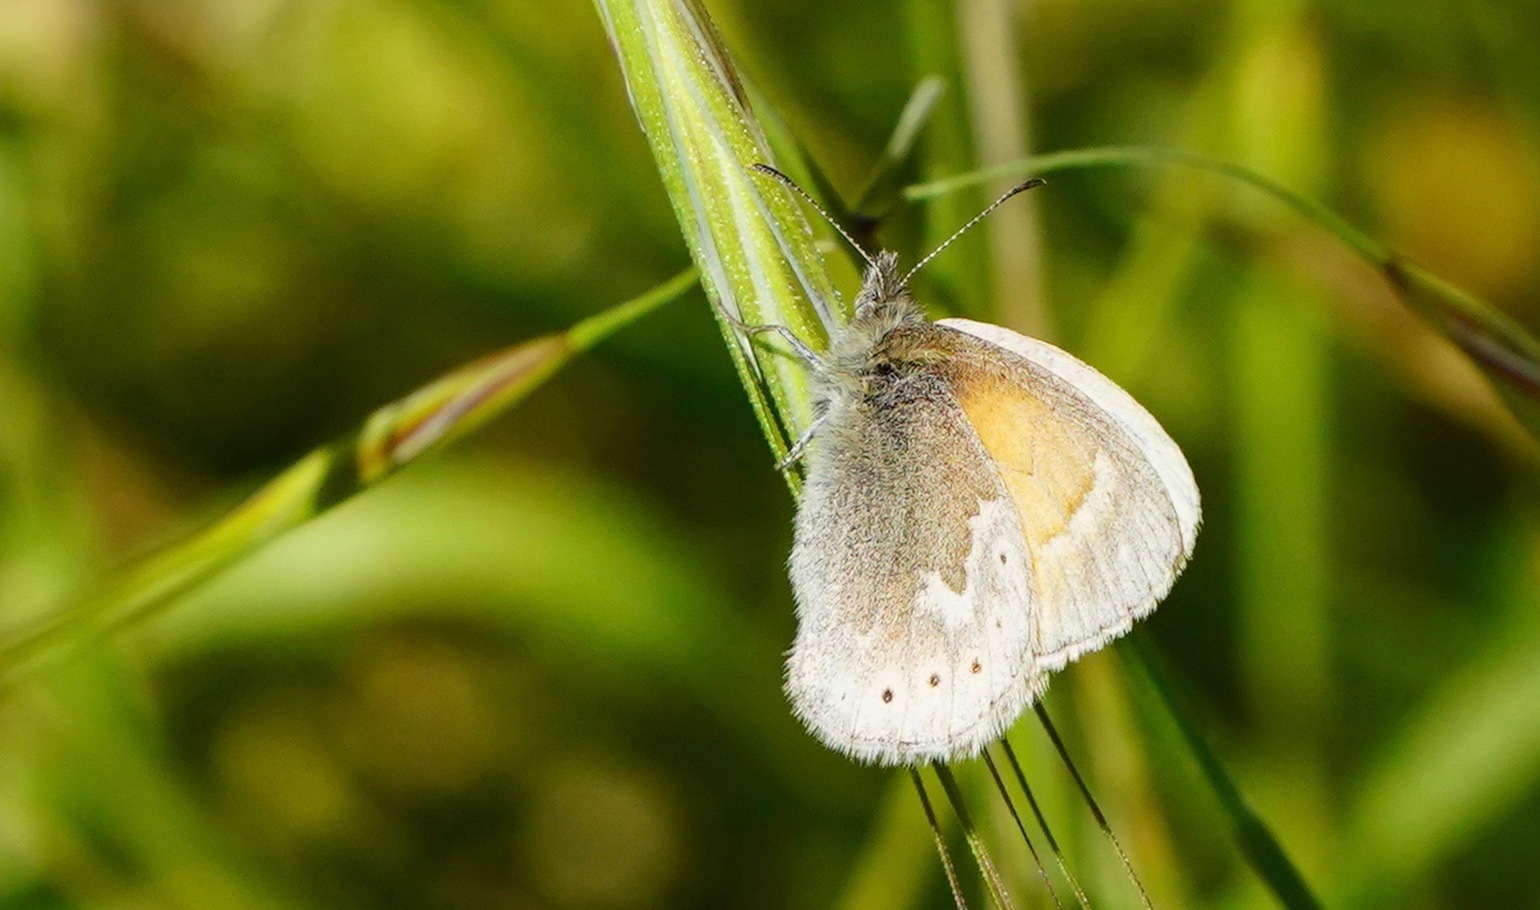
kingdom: Animalia
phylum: Arthropoda
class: Insecta
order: Lepidoptera
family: Nymphalidae
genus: Coenonympha
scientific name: Coenonympha california
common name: Common ringlet
